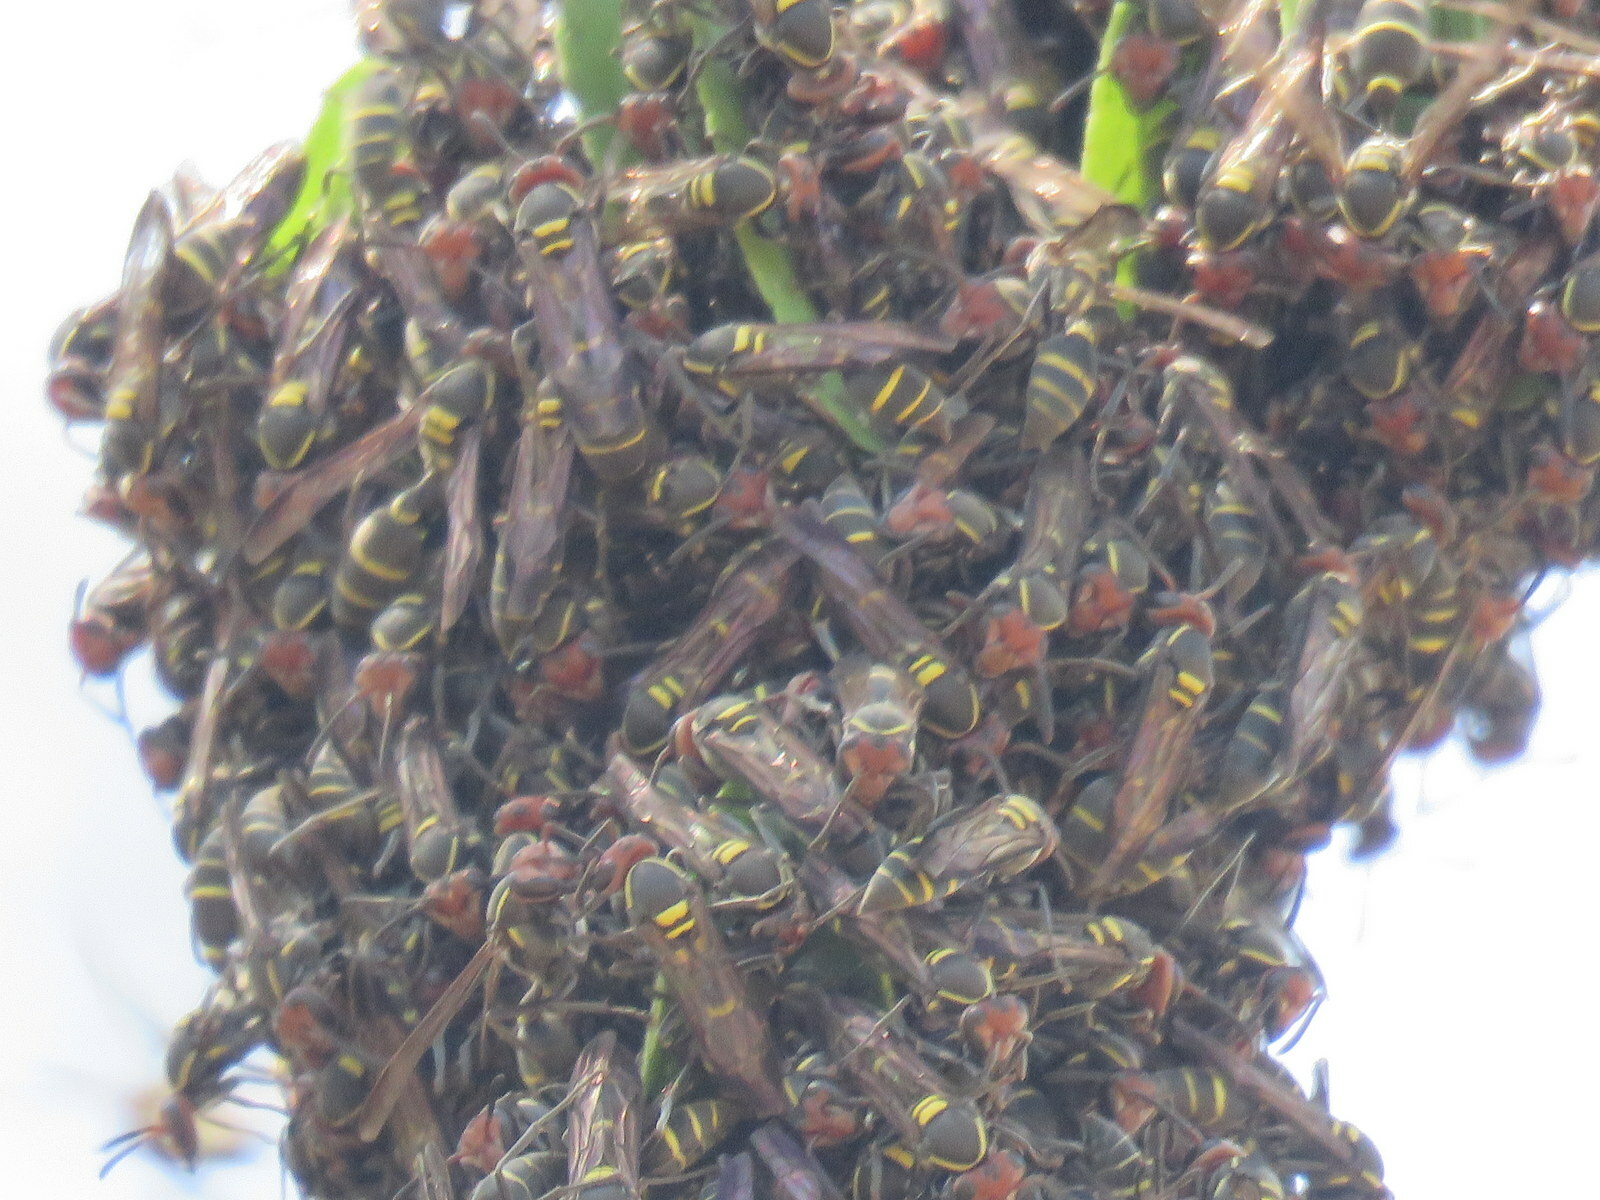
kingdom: Animalia
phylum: Arthropoda
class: Insecta
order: Hymenoptera
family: Eumenidae
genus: Polybia
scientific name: Polybia ruficeps
